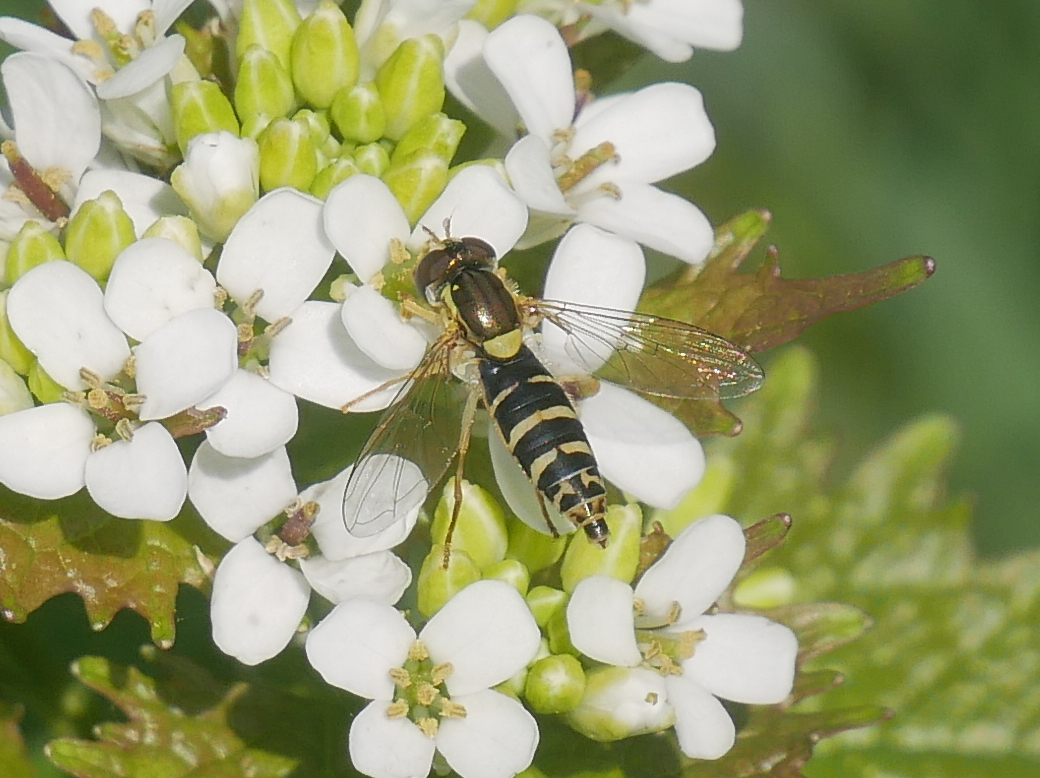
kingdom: Animalia
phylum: Arthropoda
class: Insecta
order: Diptera
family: Syrphidae
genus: Sphaerophoria
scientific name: Sphaerophoria
